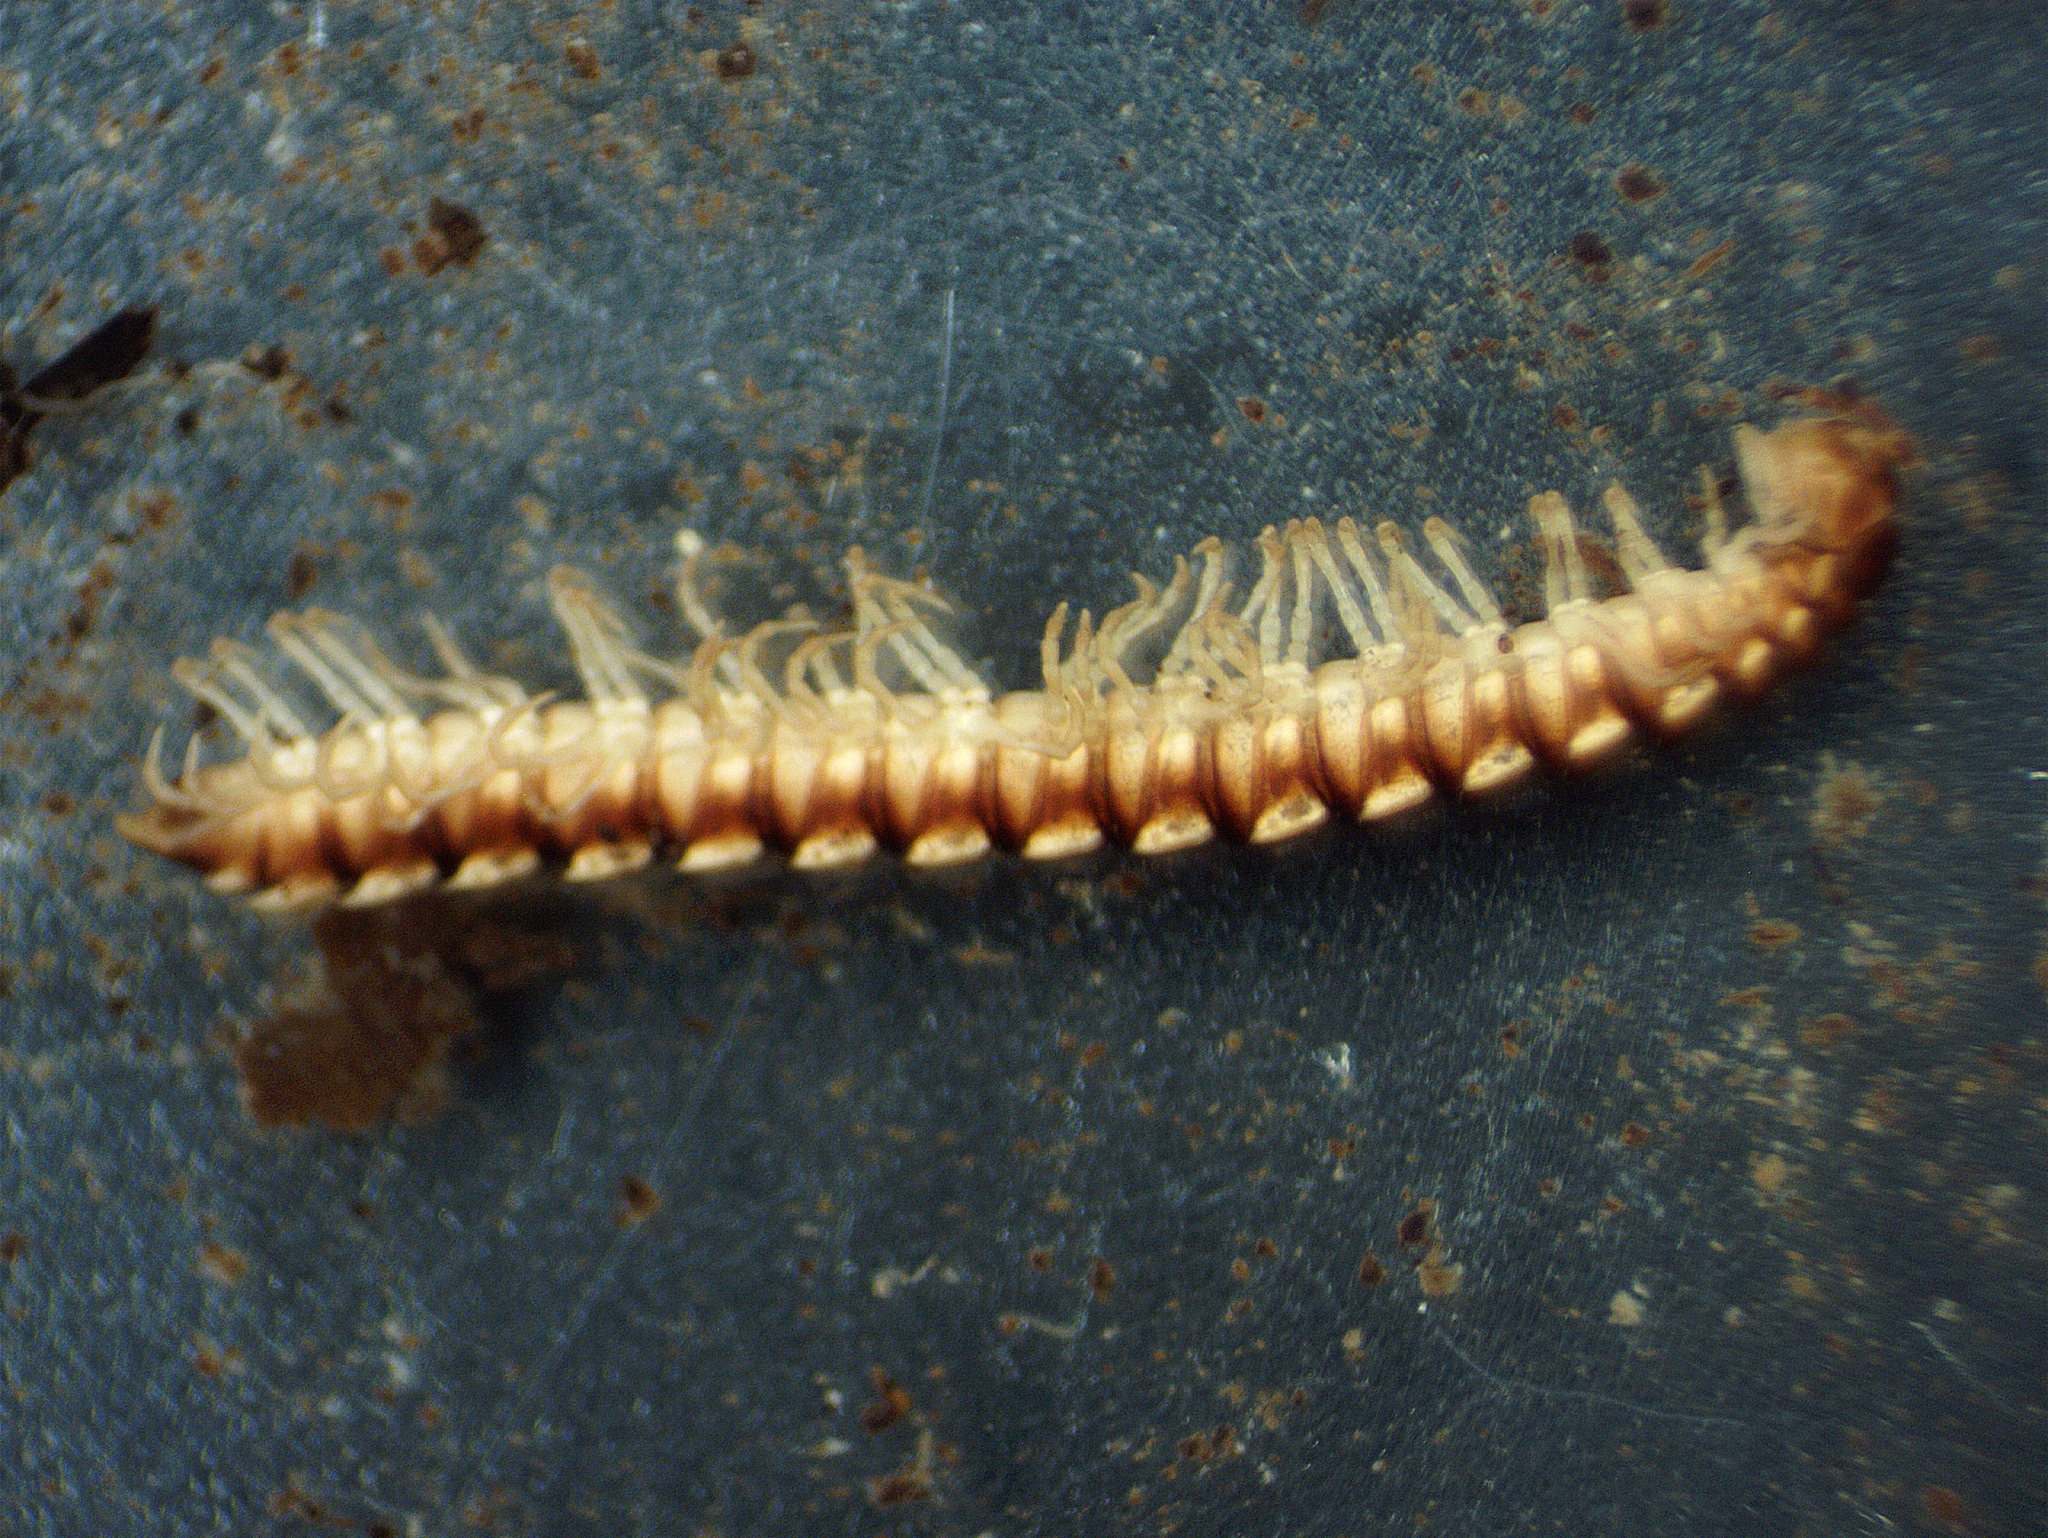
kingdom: Animalia
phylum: Arthropoda
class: Diplopoda
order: Polydesmida
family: Paradoxosomatidae
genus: Oxidus
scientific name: Oxidus gracilis
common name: Greenhouse millipede
